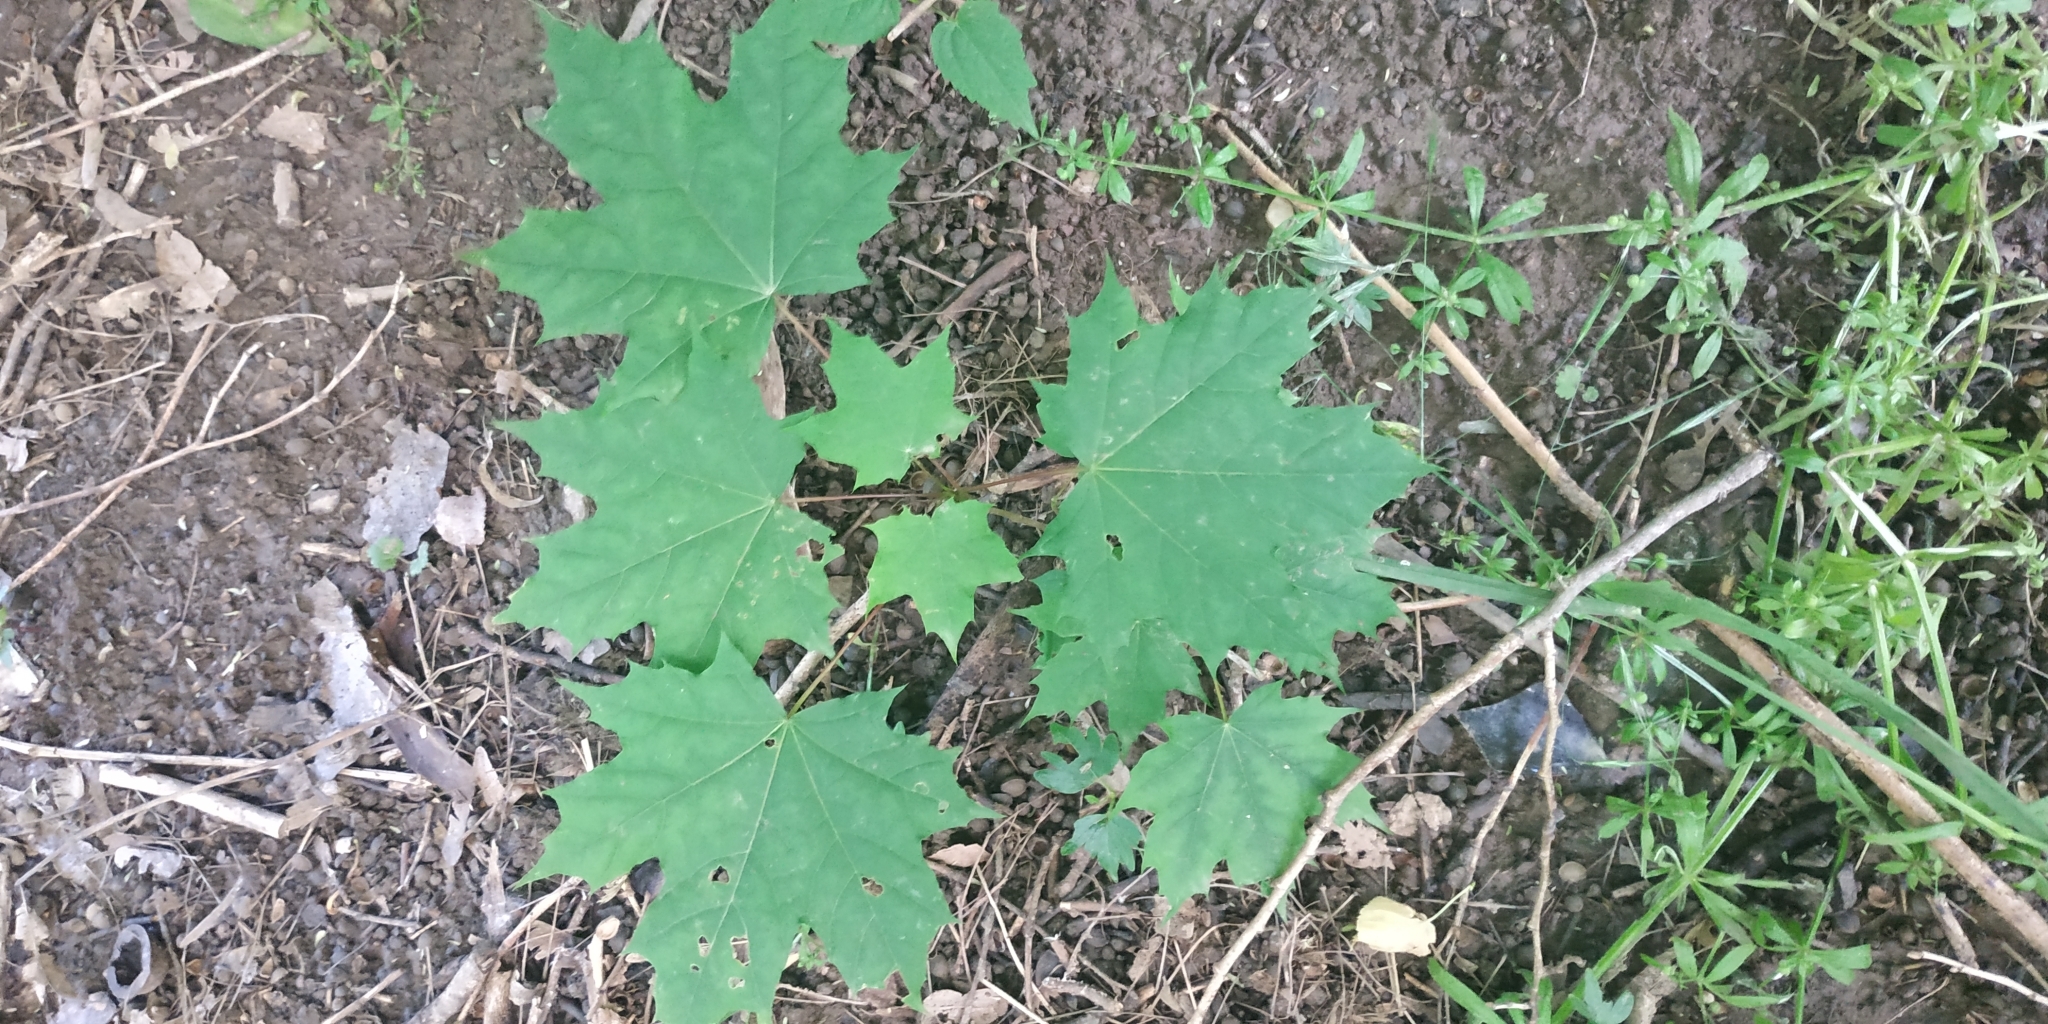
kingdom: Plantae
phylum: Tracheophyta
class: Magnoliopsida
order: Sapindales
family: Sapindaceae
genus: Acer
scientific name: Acer platanoides
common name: Norway maple
